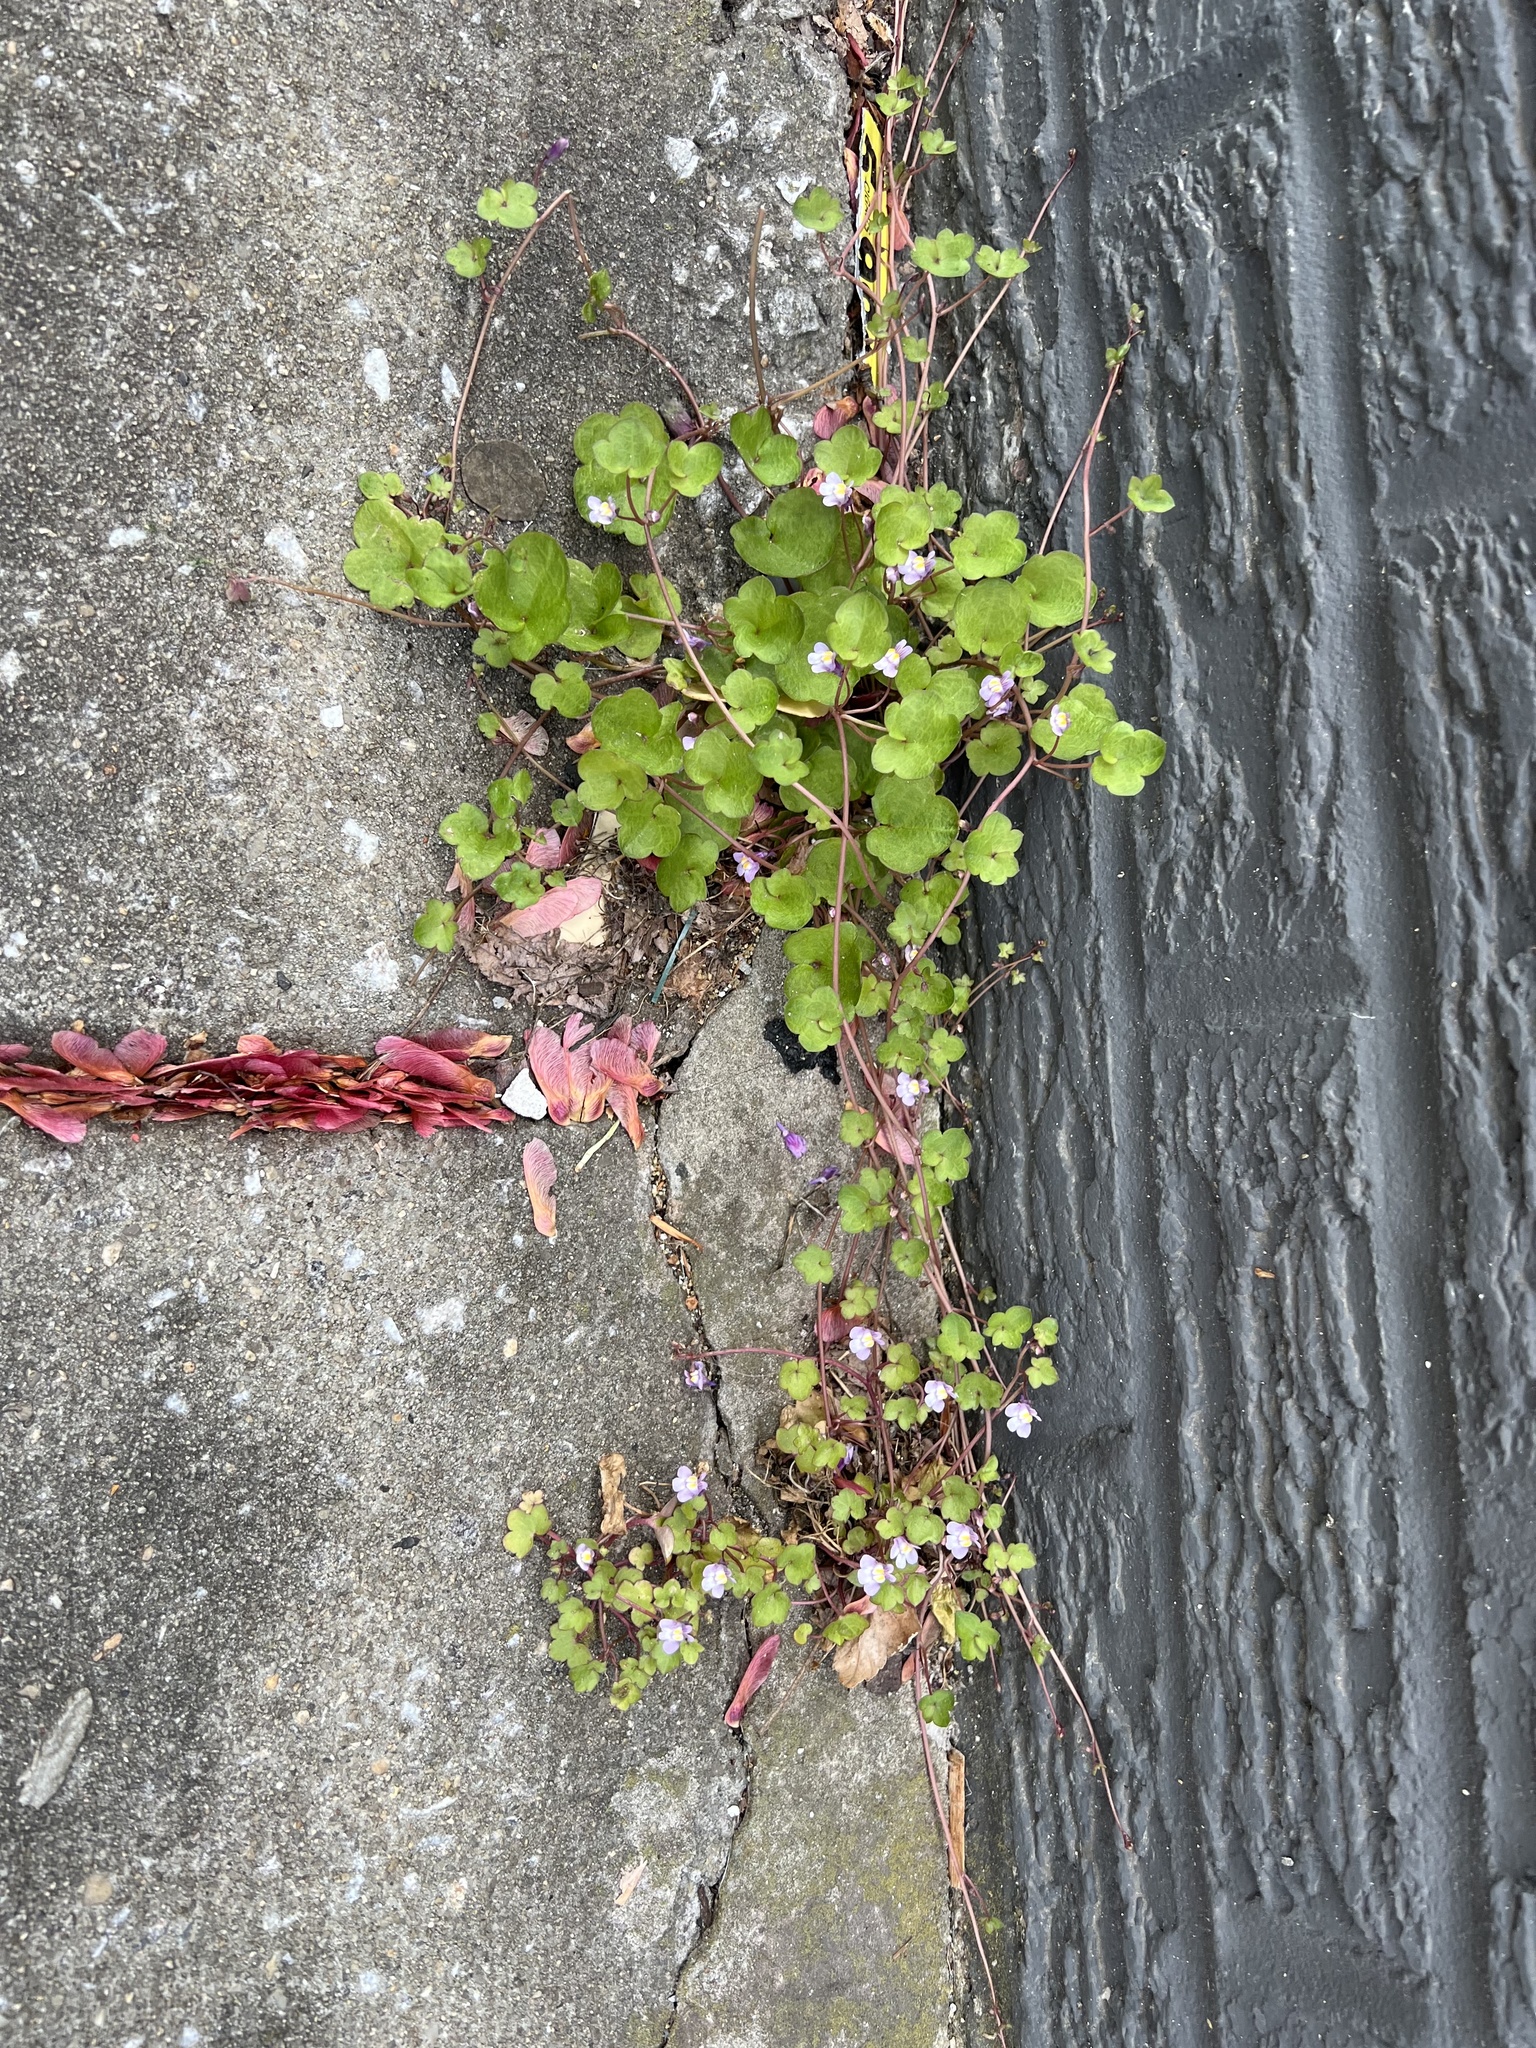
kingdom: Plantae
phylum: Tracheophyta
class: Magnoliopsida
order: Lamiales
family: Plantaginaceae
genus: Cymbalaria
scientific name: Cymbalaria muralis
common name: Ivy-leaved toadflax
